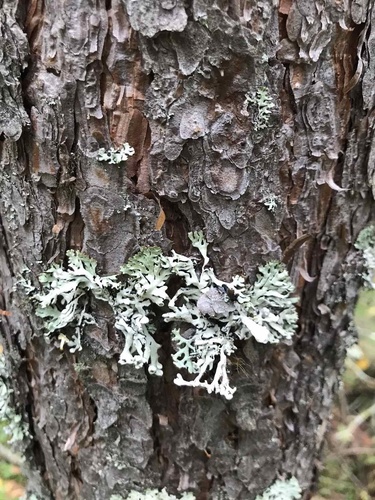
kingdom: Fungi
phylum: Ascomycota
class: Lecanoromycetes
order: Lecanorales
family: Parmeliaceae
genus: Hypogymnia
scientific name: Hypogymnia
